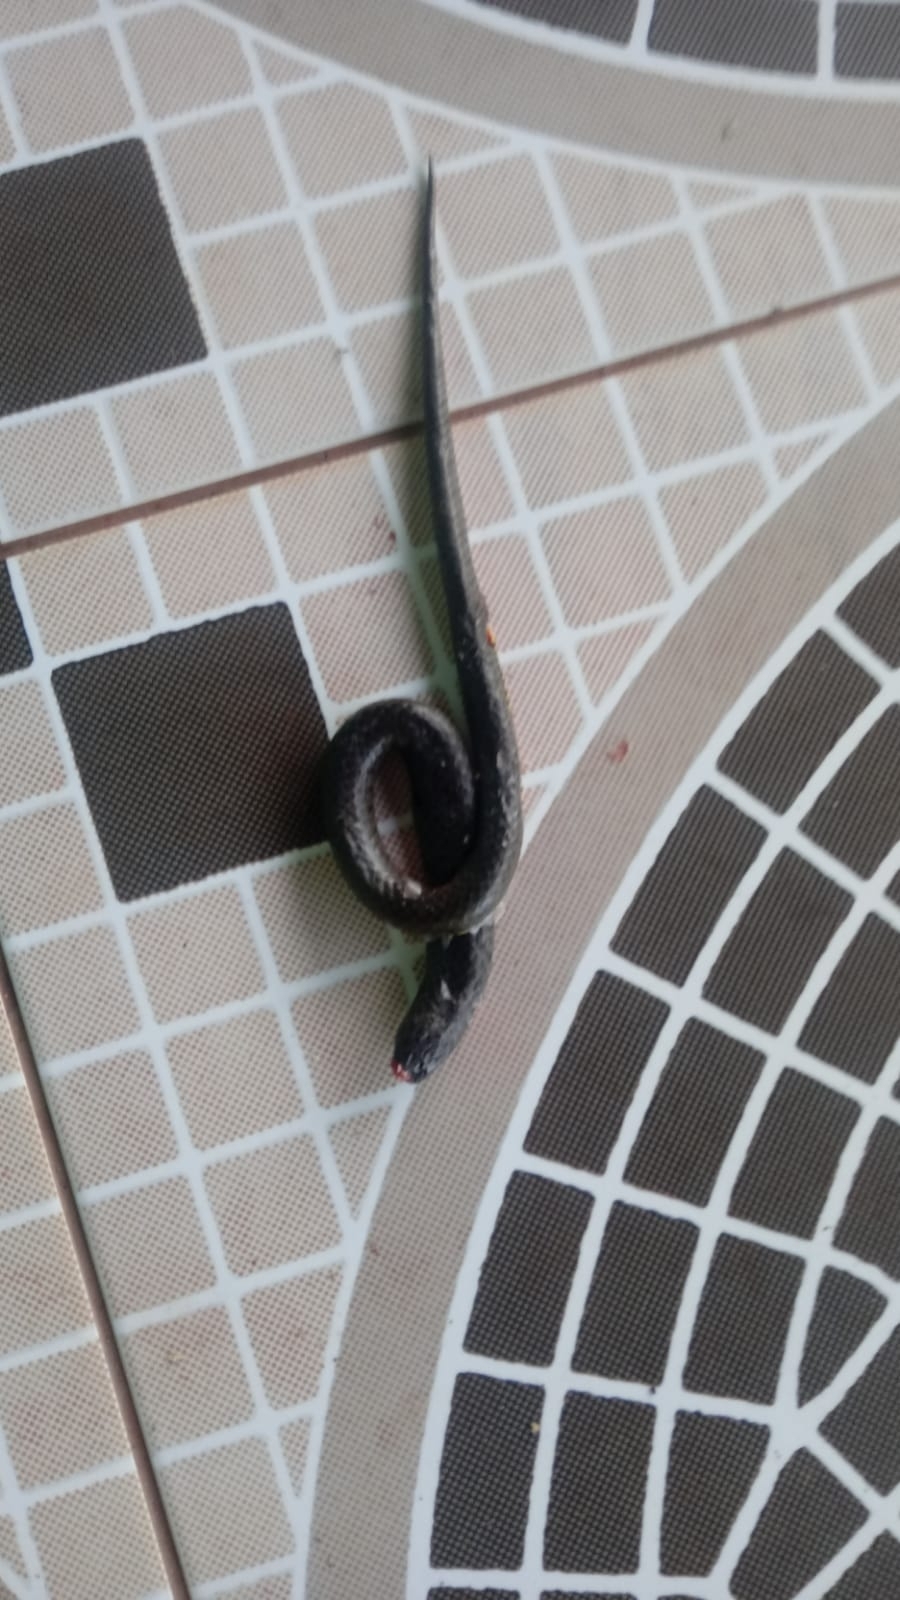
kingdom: Animalia
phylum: Chordata
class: Squamata
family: Colubridae
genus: Erythrolamprus
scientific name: Erythrolamprus poecilogyrus
